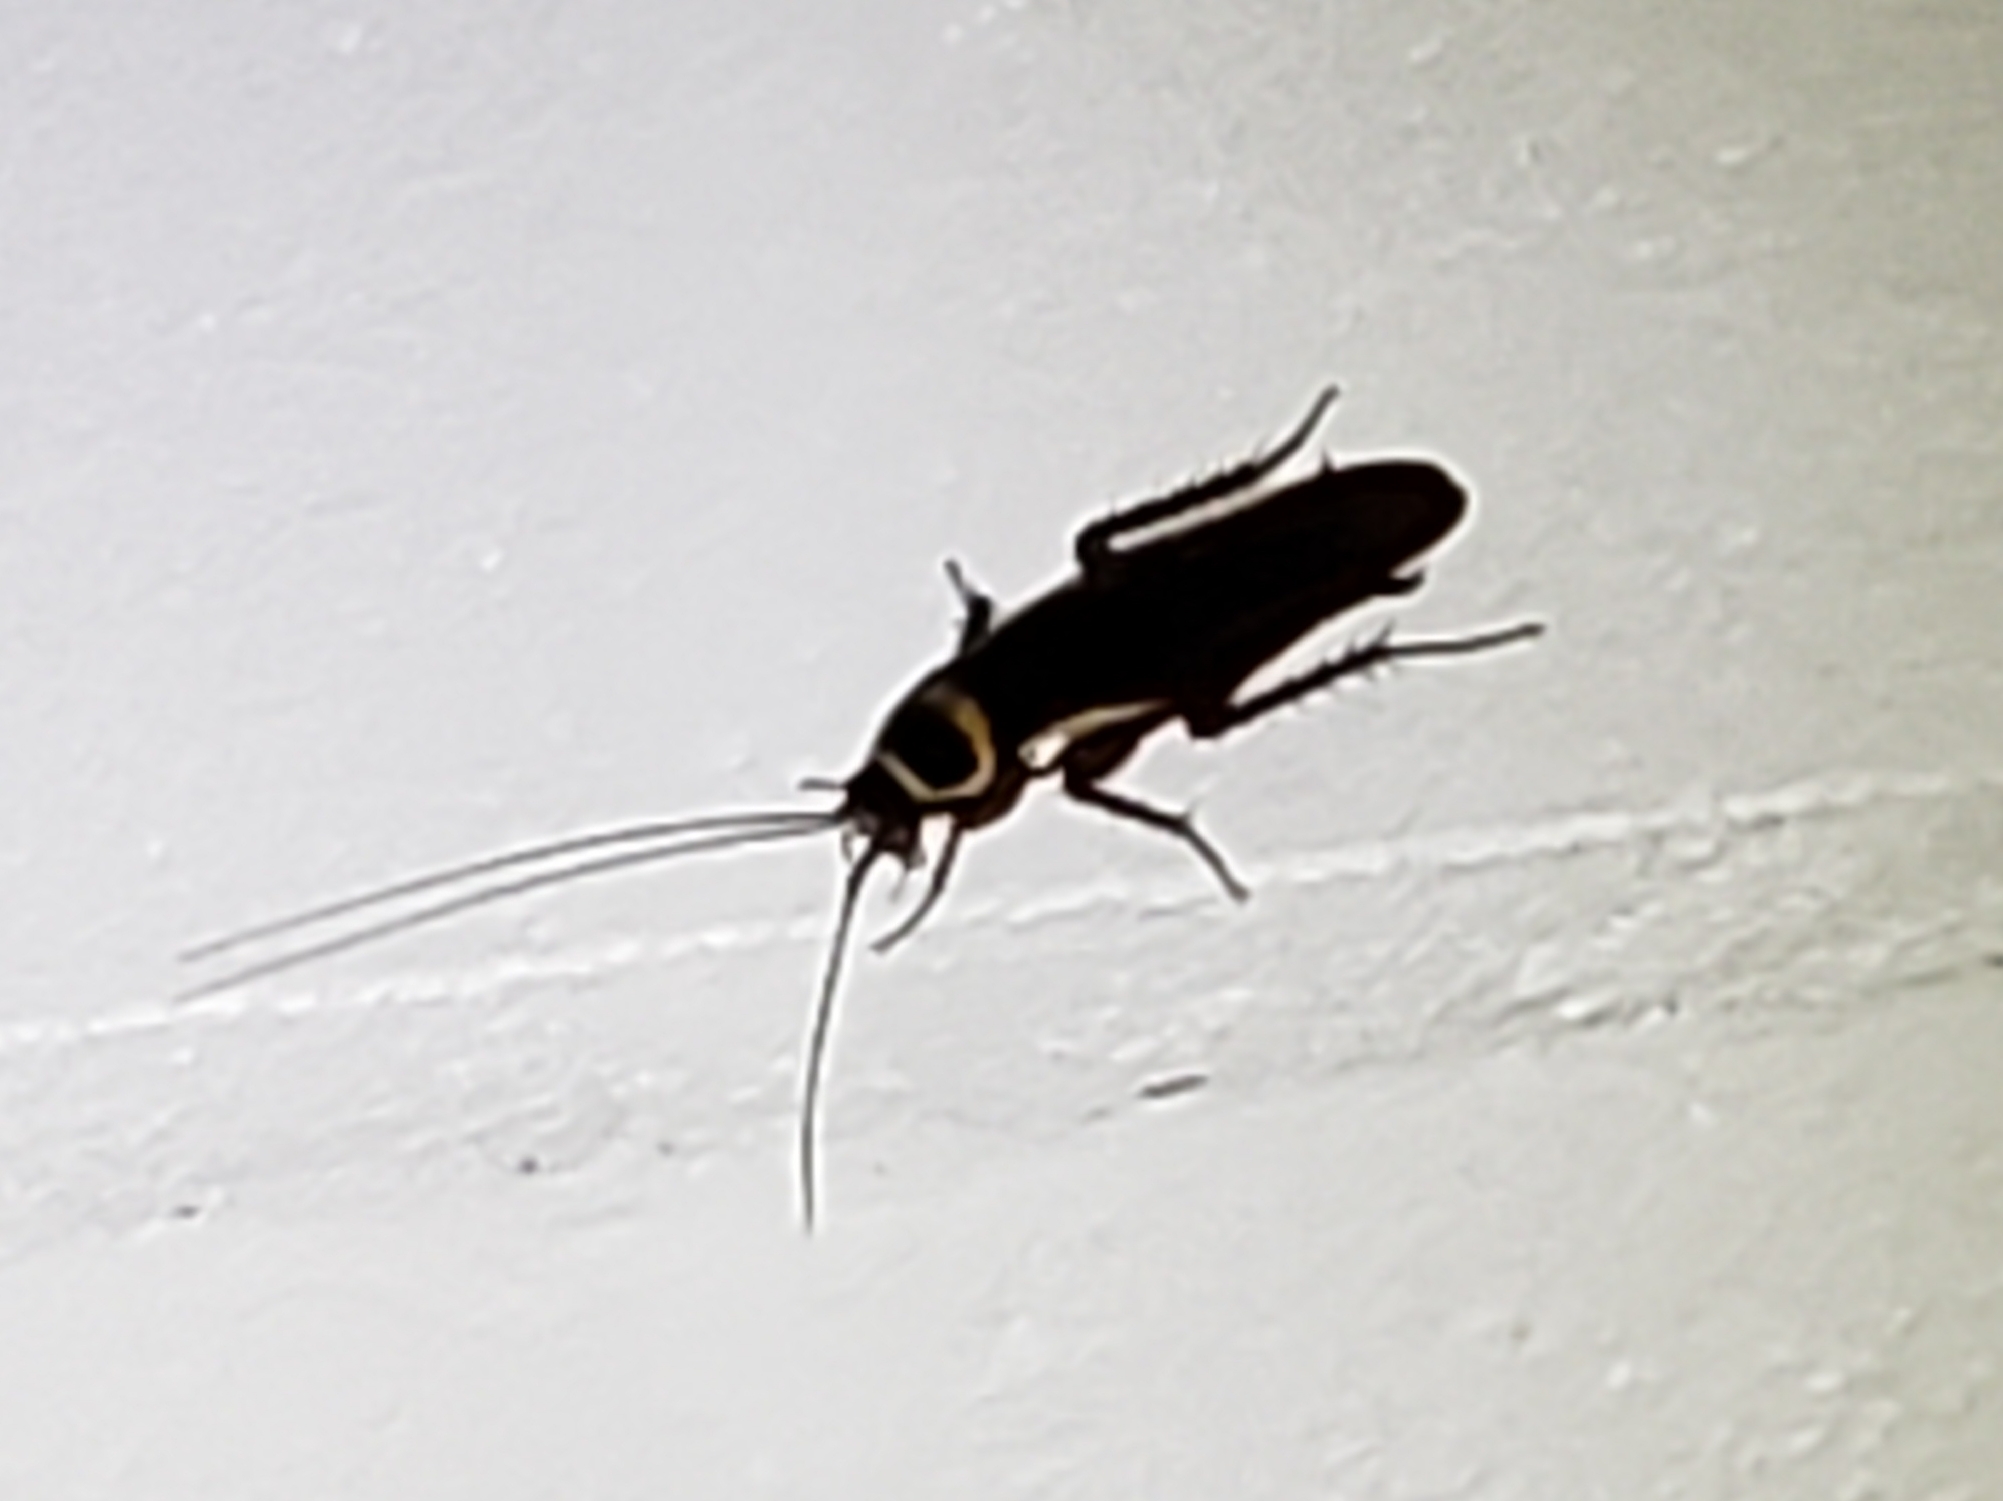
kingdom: Animalia
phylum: Arthropoda
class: Insecta
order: Blattodea
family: Blattidae
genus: Periplaneta
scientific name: Periplaneta australasiae
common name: Australian cockroach
